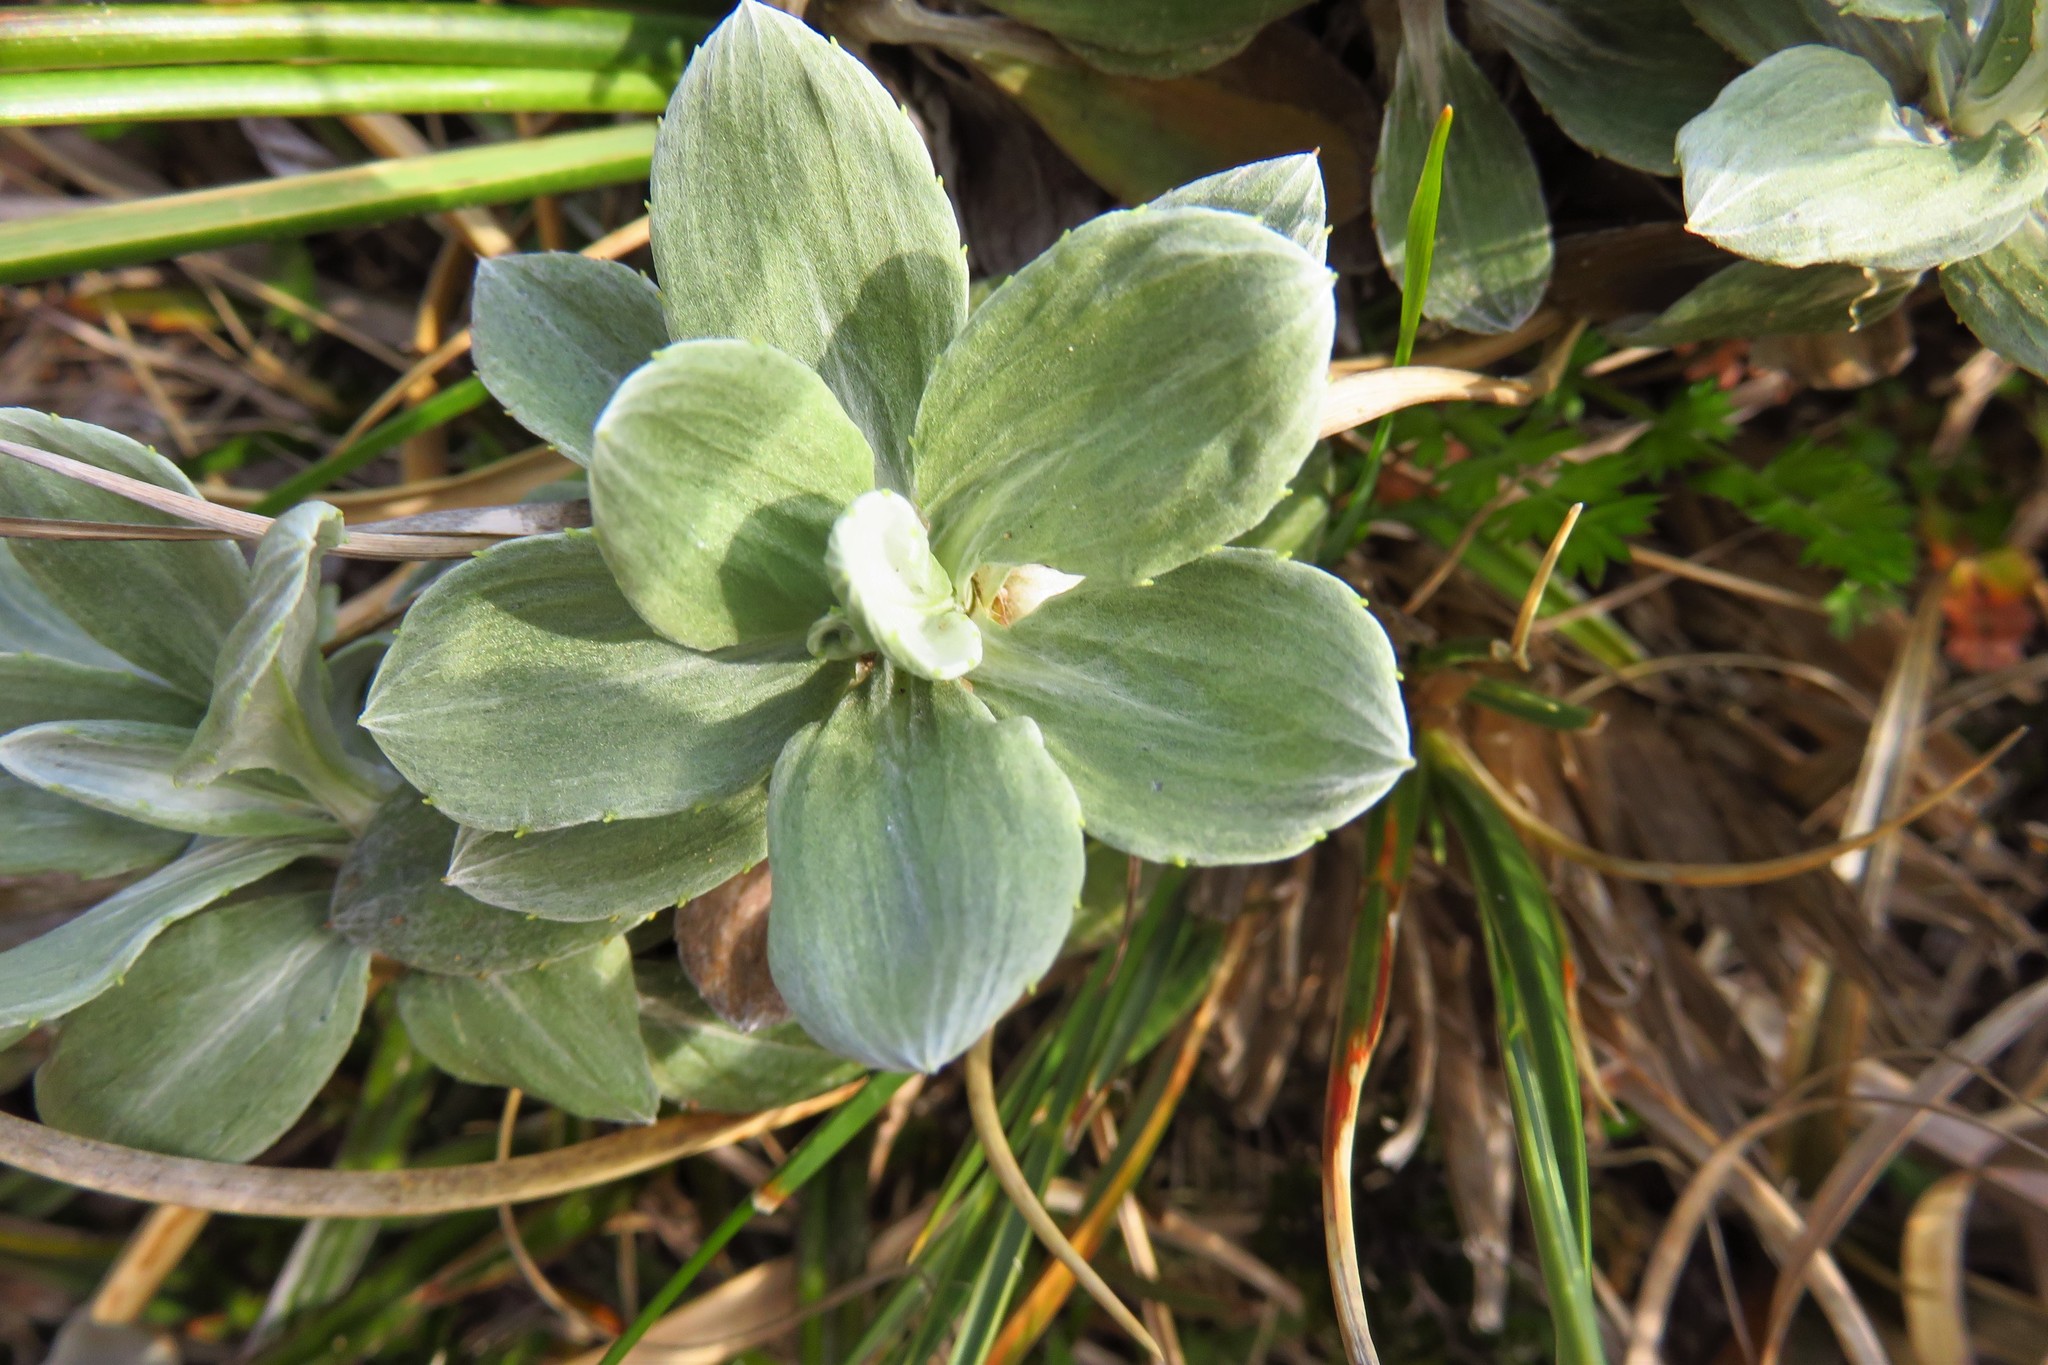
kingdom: Plantae
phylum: Tracheophyta
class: Magnoliopsida
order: Asterales
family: Asteraceae
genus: Celmisia
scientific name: Celmisia discolor
